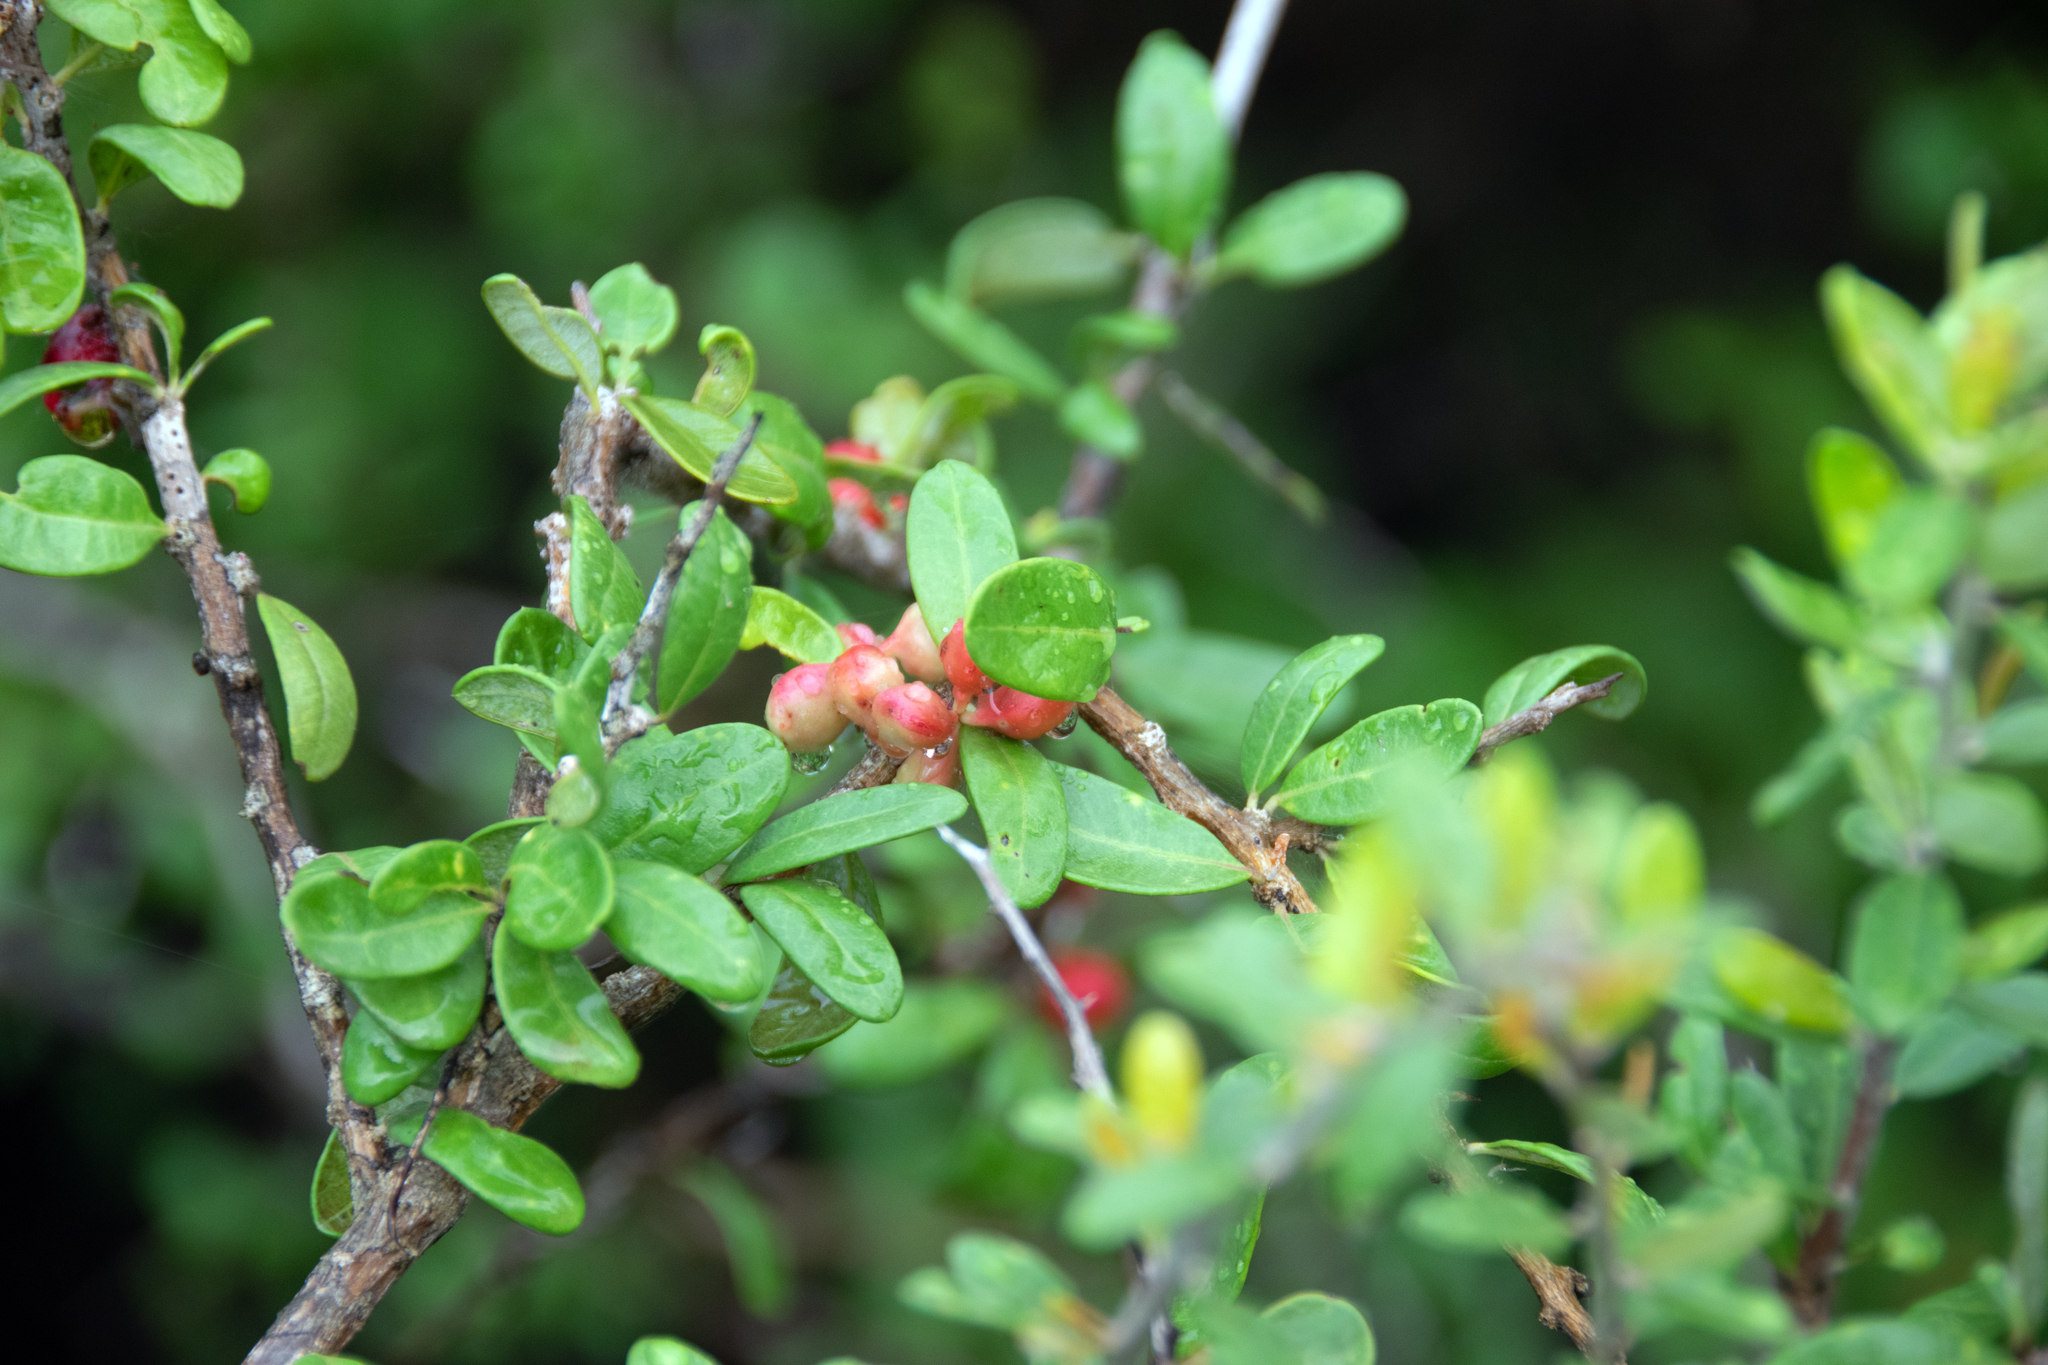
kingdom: Plantae
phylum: Tracheophyta
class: Magnoliopsida
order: Sapindales
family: Simaroubaceae
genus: Castela
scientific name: Castela galapageia
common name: Bitterbush
